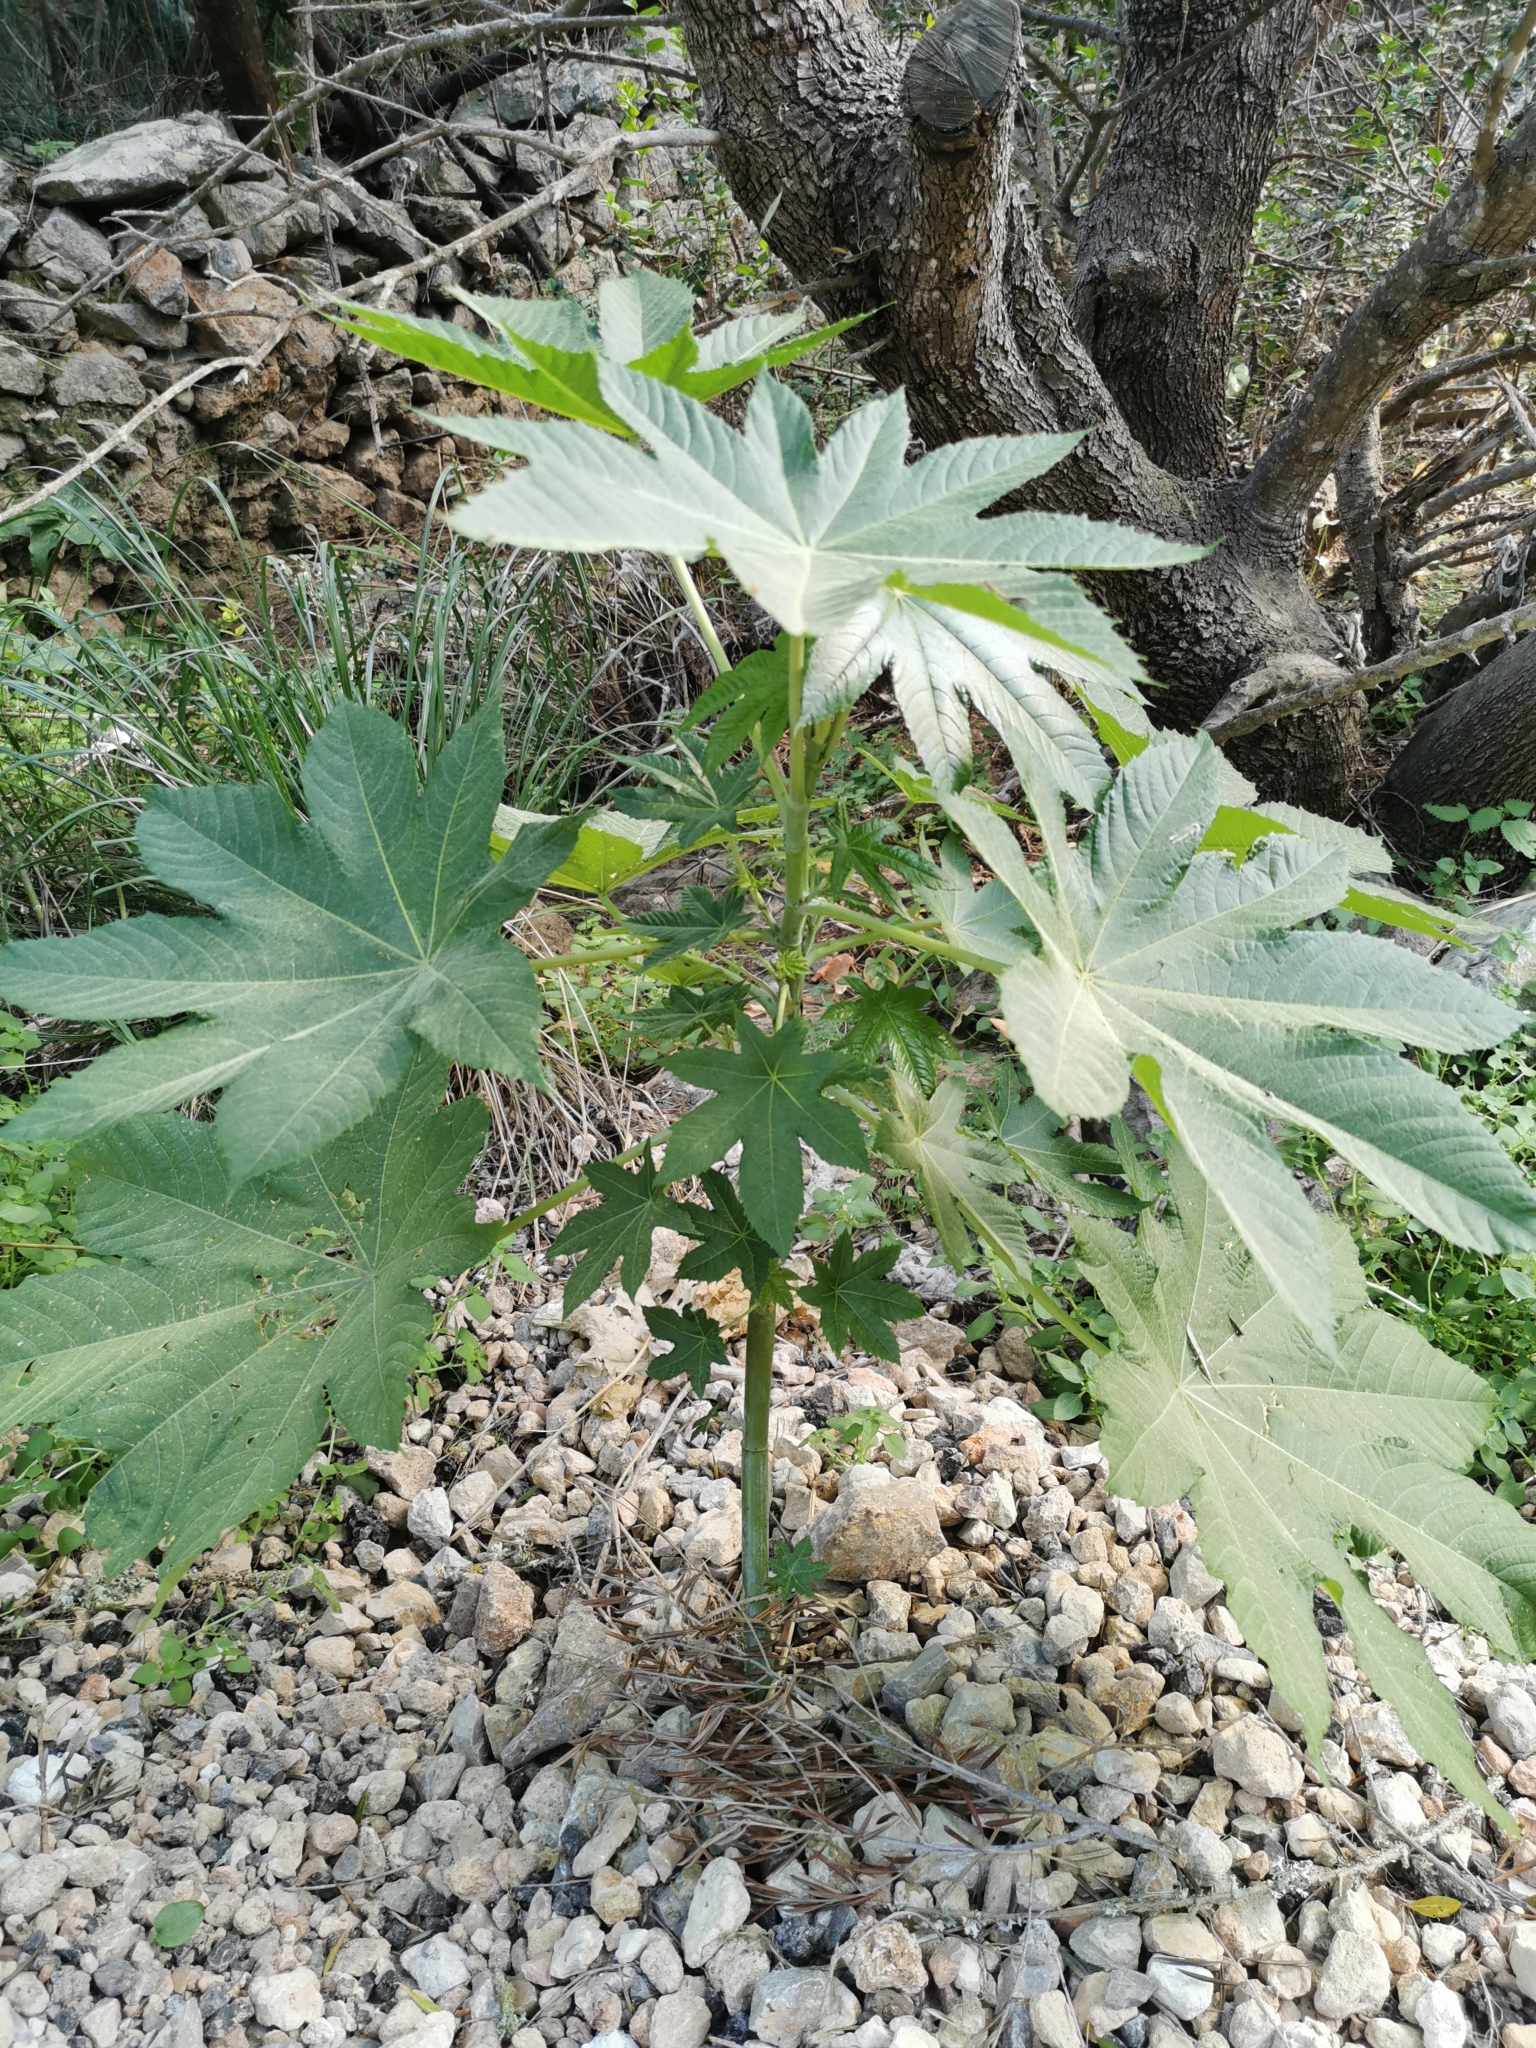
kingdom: Plantae
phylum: Tracheophyta
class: Magnoliopsida
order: Malpighiales
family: Euphorbiaceae
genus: Ricinus
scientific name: Ricinus communis
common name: Castor-oil-plant
